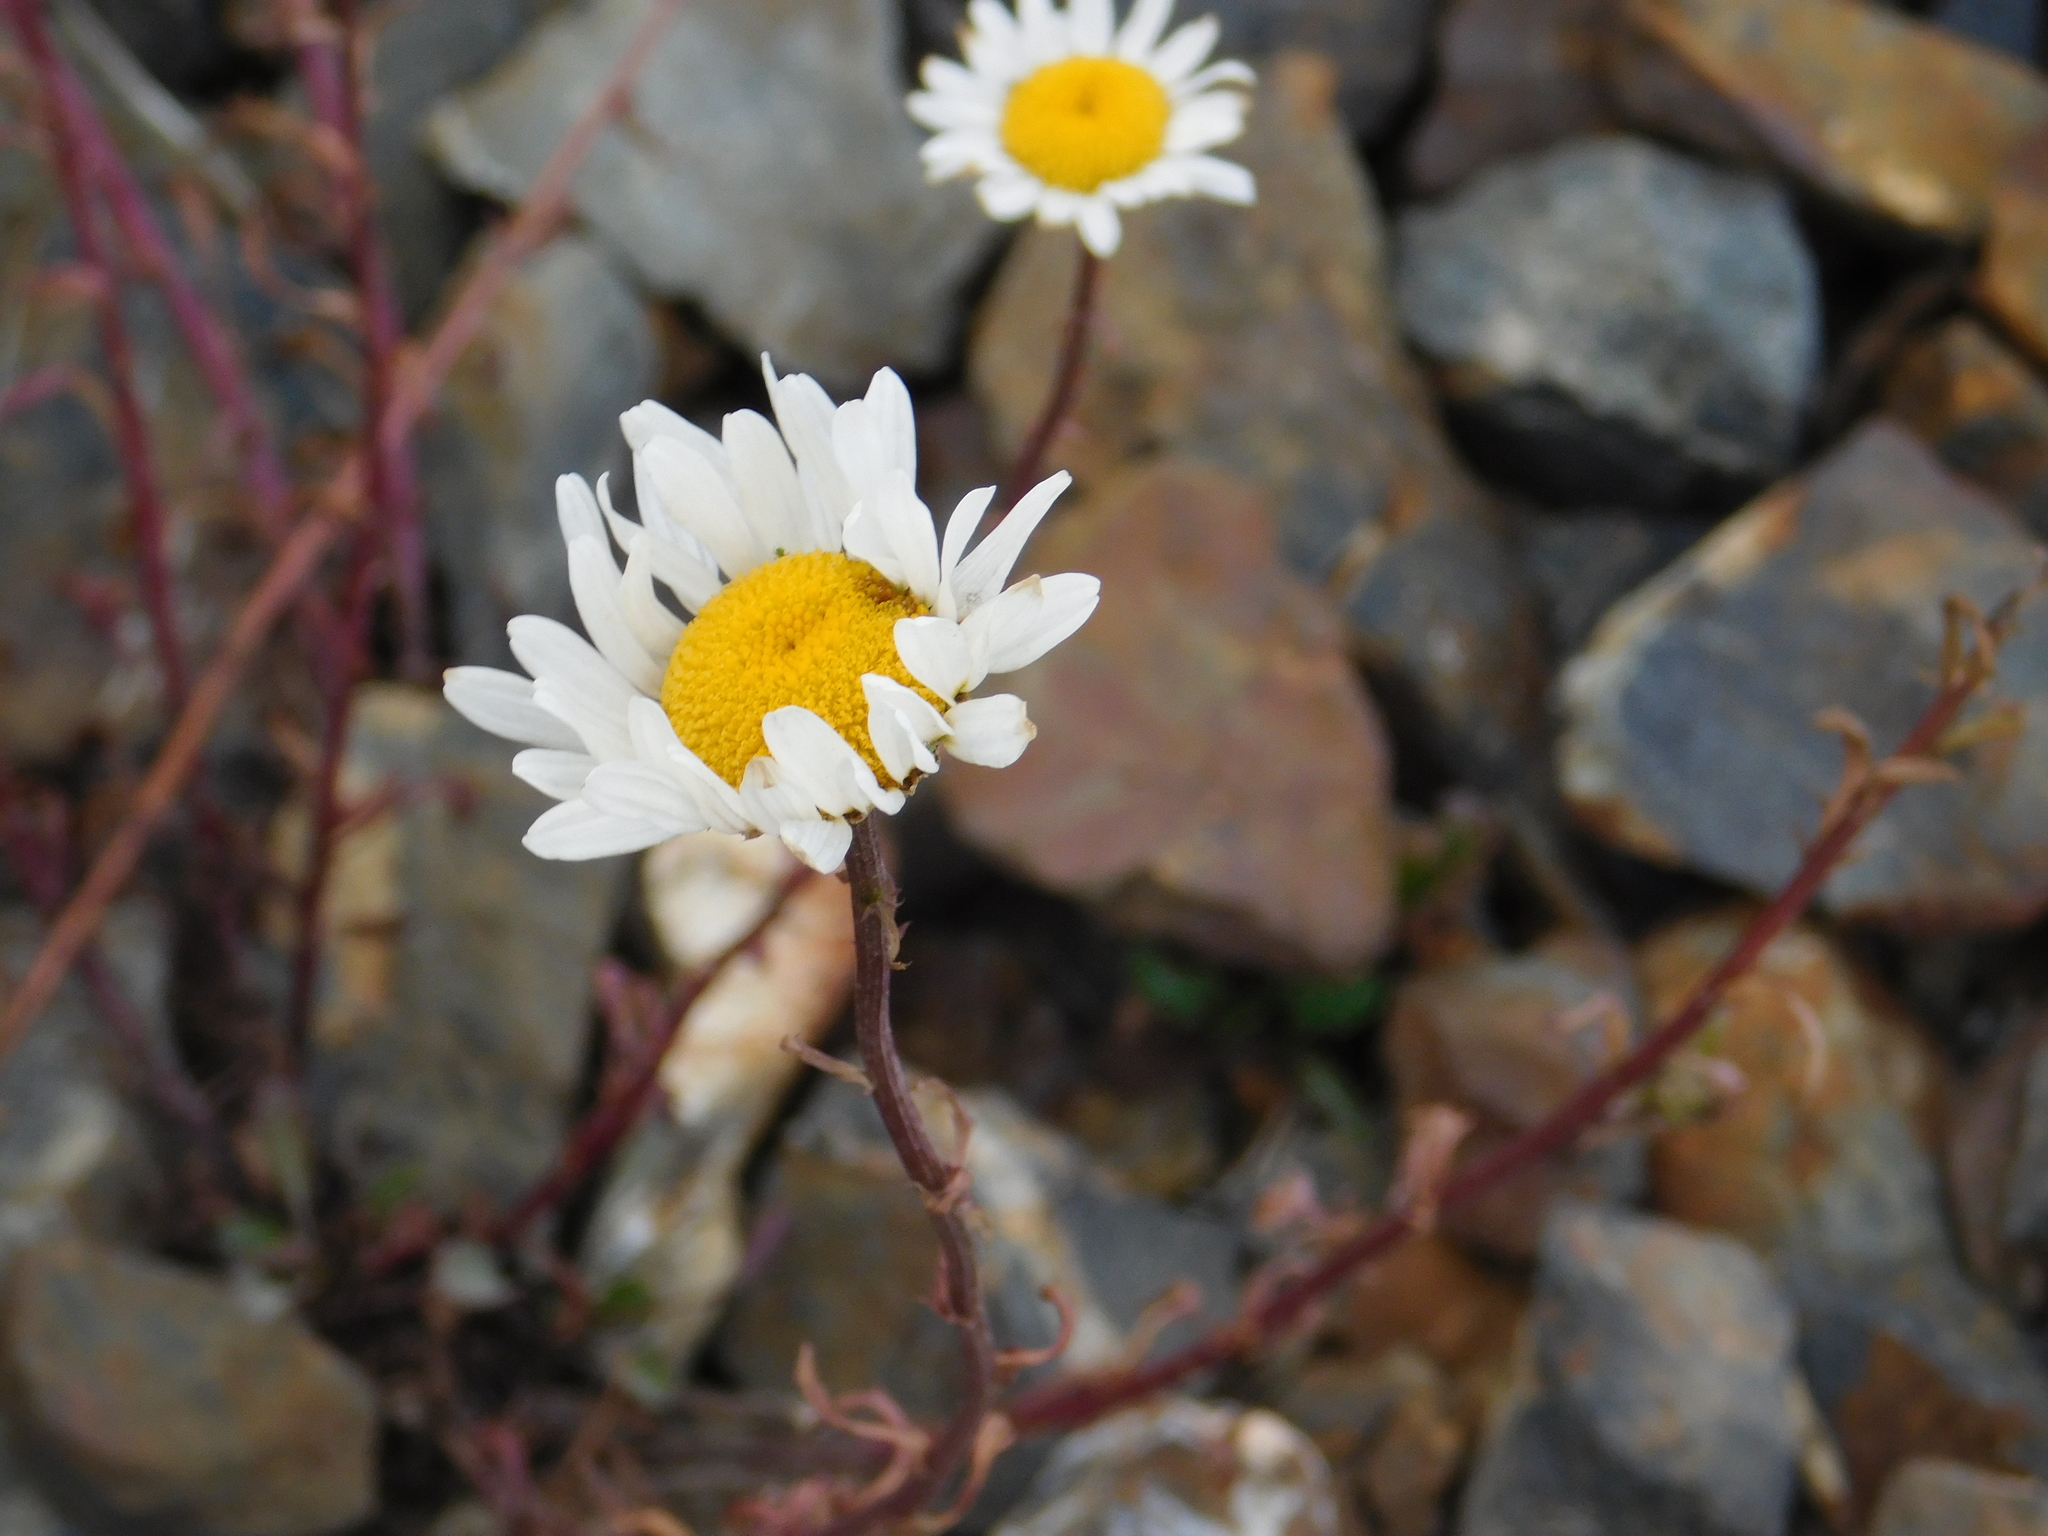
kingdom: Plantae
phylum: Tracheophyta
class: Magnoliopsida
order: Asterales
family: Asteraceae
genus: Leucanthemum
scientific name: Leucanthemum vulgare
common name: Oxeye daisy
